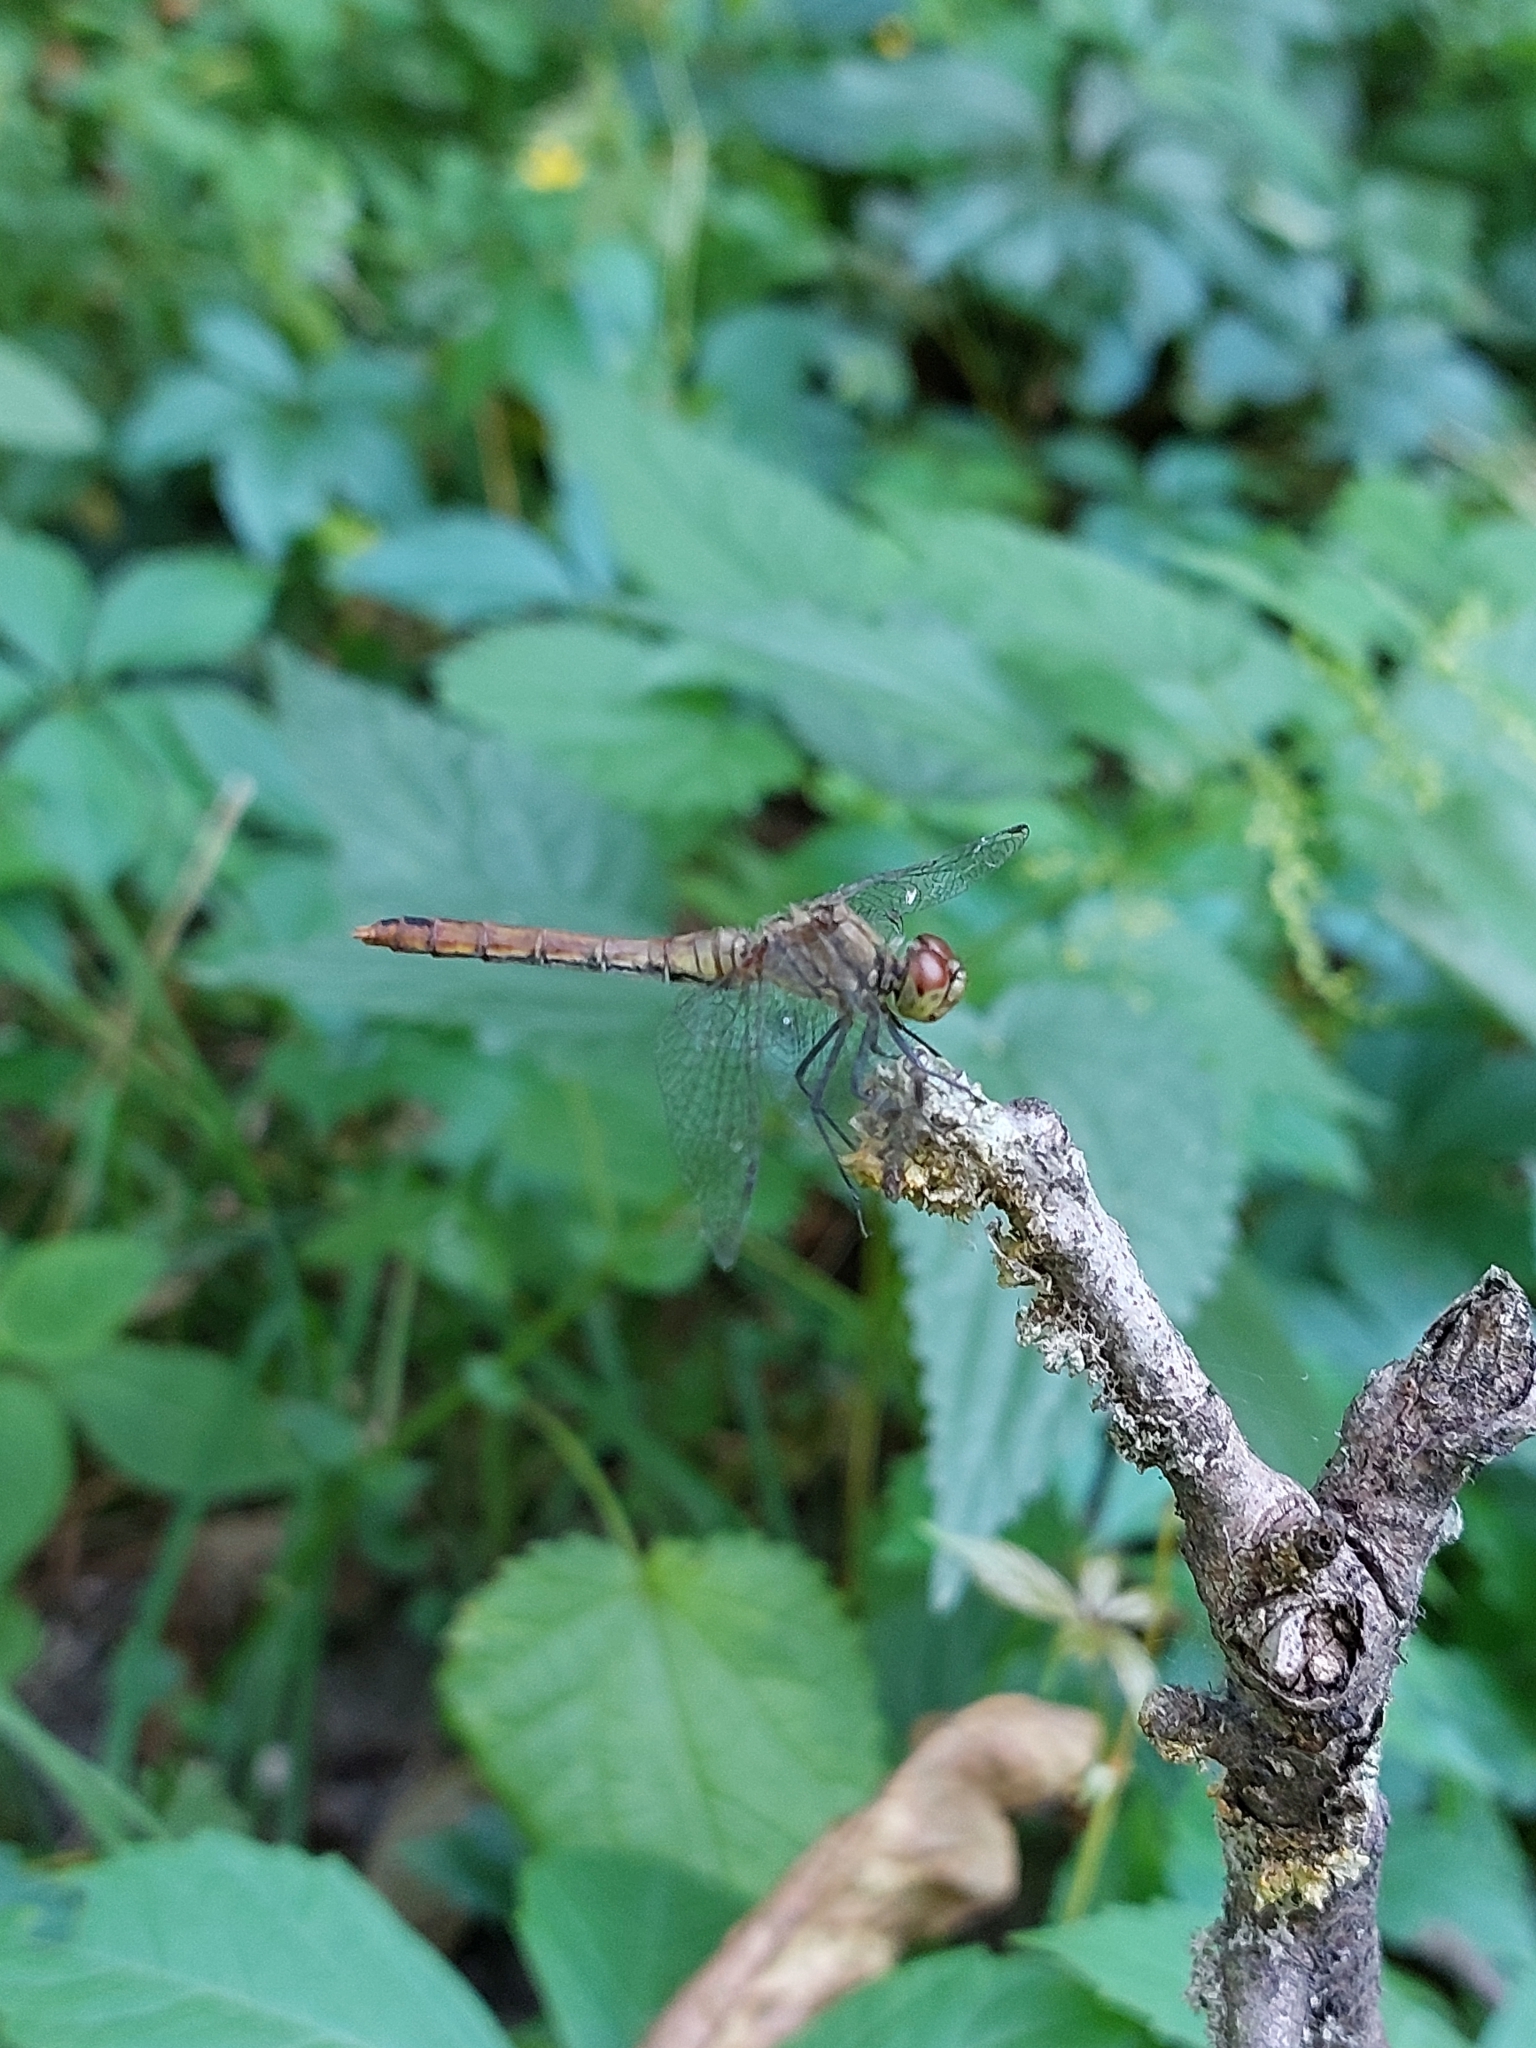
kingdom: Animalia
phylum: Arthropoda
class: Insecta
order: Odonata
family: Libellulidae
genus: Sympetrum
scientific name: Sympetrum sanguineum
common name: Ruddy darter
